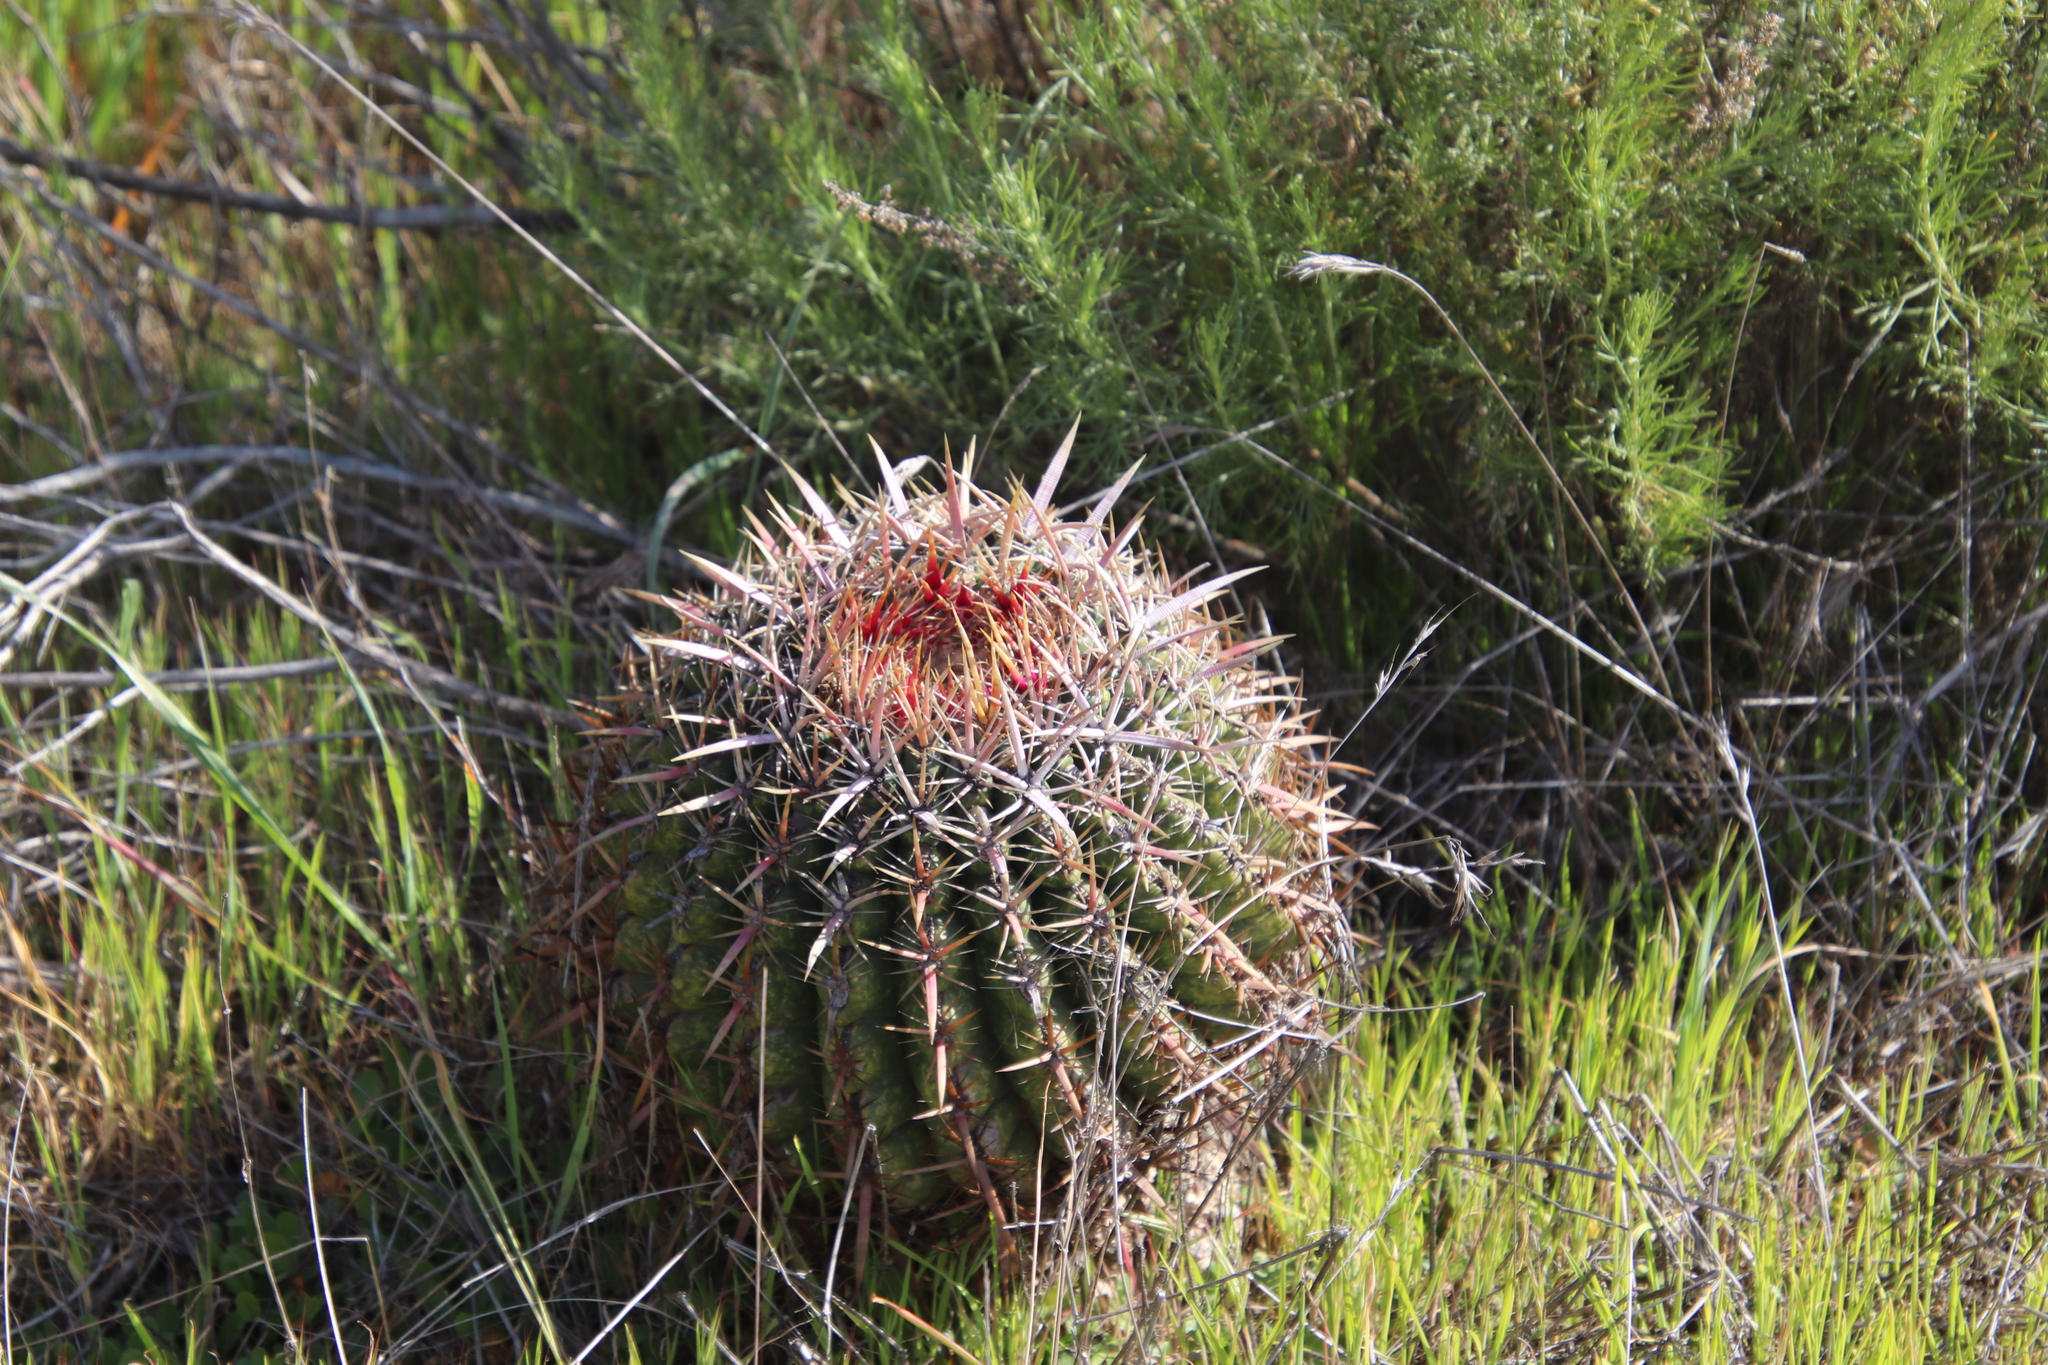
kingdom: Plantae
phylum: Tracheophyta
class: Magnoliopsida
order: Caryophyllales
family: Cactaceae
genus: Ferocactus
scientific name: Ferocactus viridescens
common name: San diego barrel cactus
